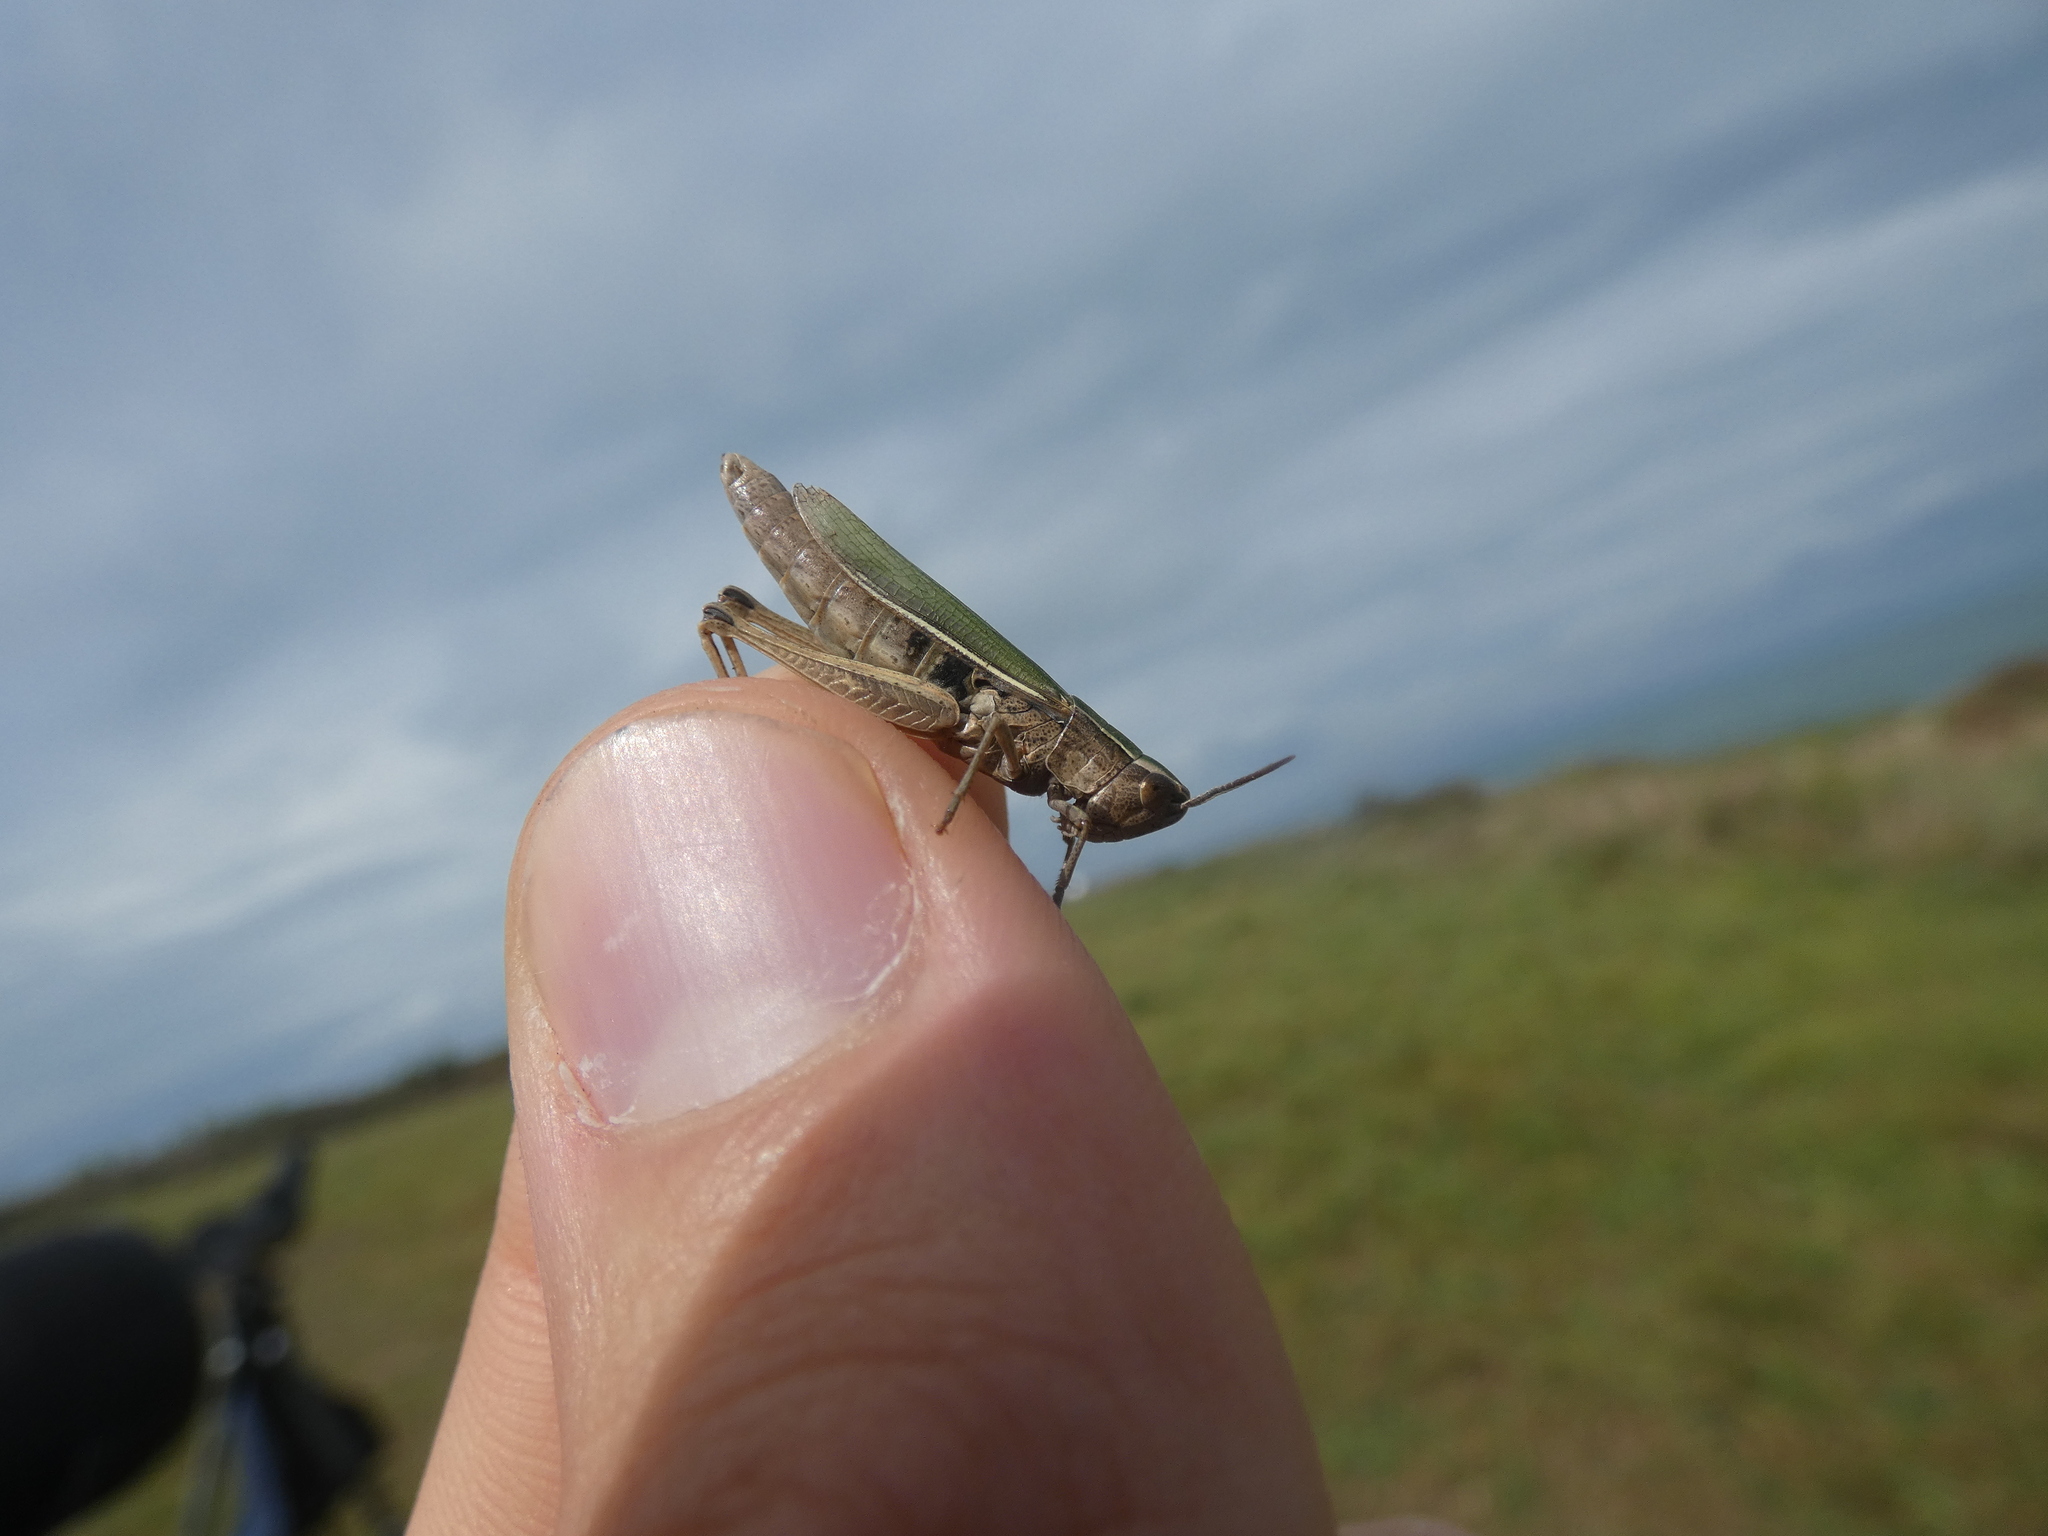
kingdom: Animalia
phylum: Arthropoda
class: Insecta
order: Orthoptera
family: Acrididae
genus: Chorthippus
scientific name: Chorthippus albomarginatus
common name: Lesser marsh grasshopper
